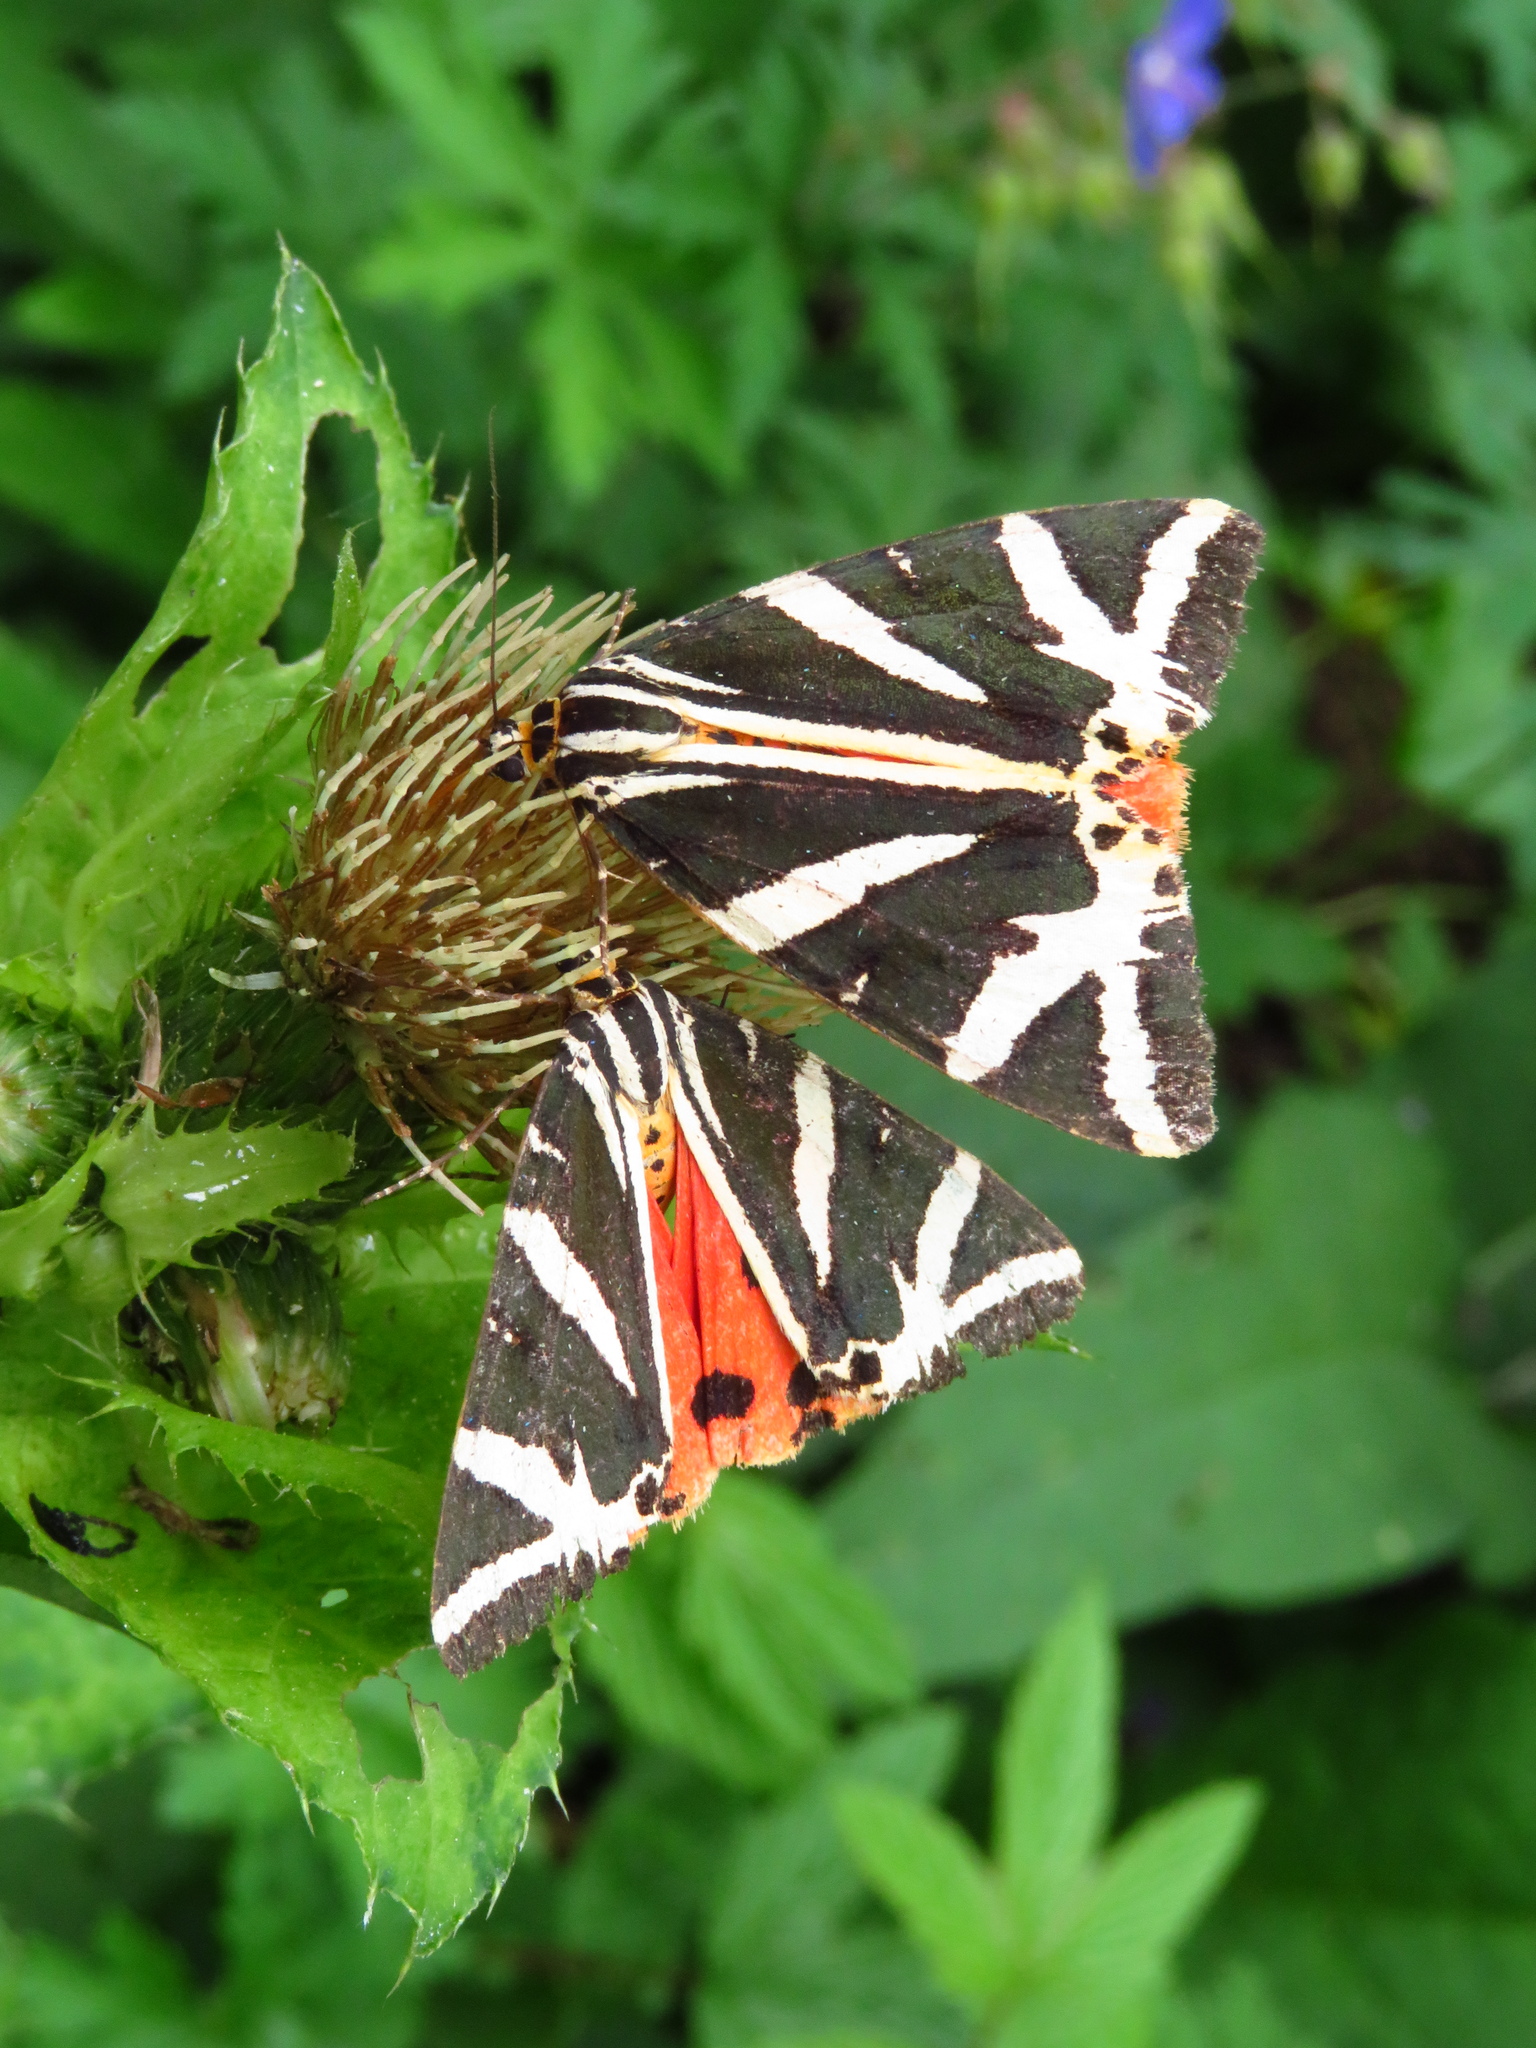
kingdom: Animalia
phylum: Arthropoda
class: Insecta
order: Lepidoptera
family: Erebidae
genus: Euplagia
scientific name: Euplagia quadripunctaria
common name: Jersey tiger
